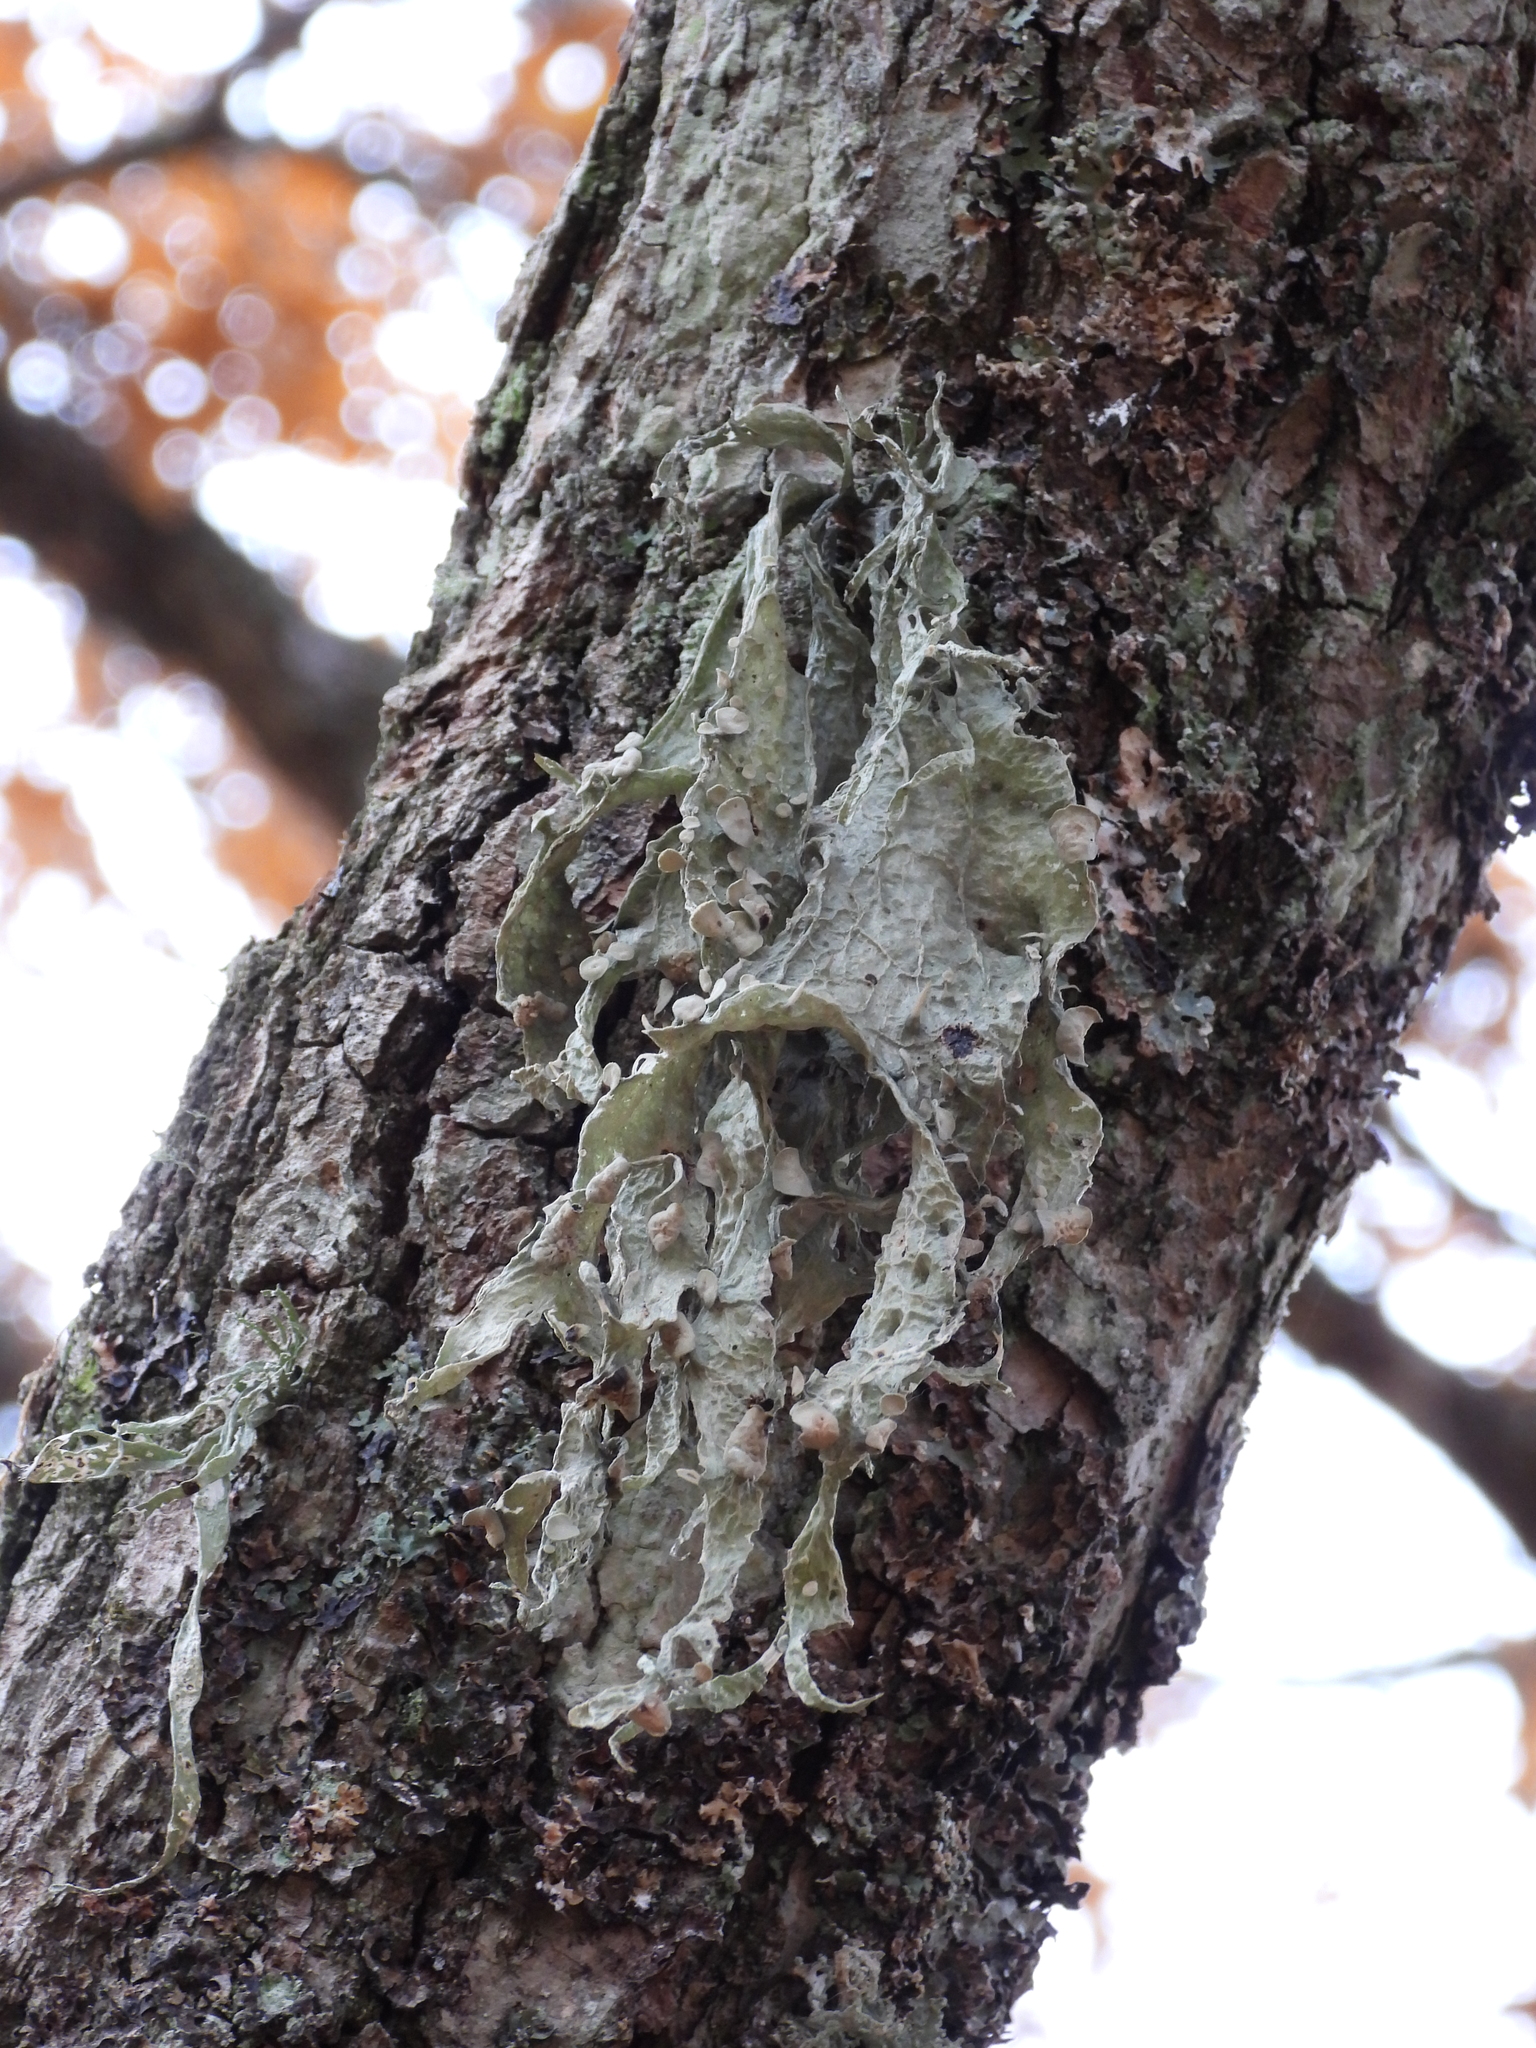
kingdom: Fungi
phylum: Ascomycota
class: Lecanoromycetes
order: Lecanorales
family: Ramalinaceae
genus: Ramalina
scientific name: Ramalina fraxinea
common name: Cartilage lichen
